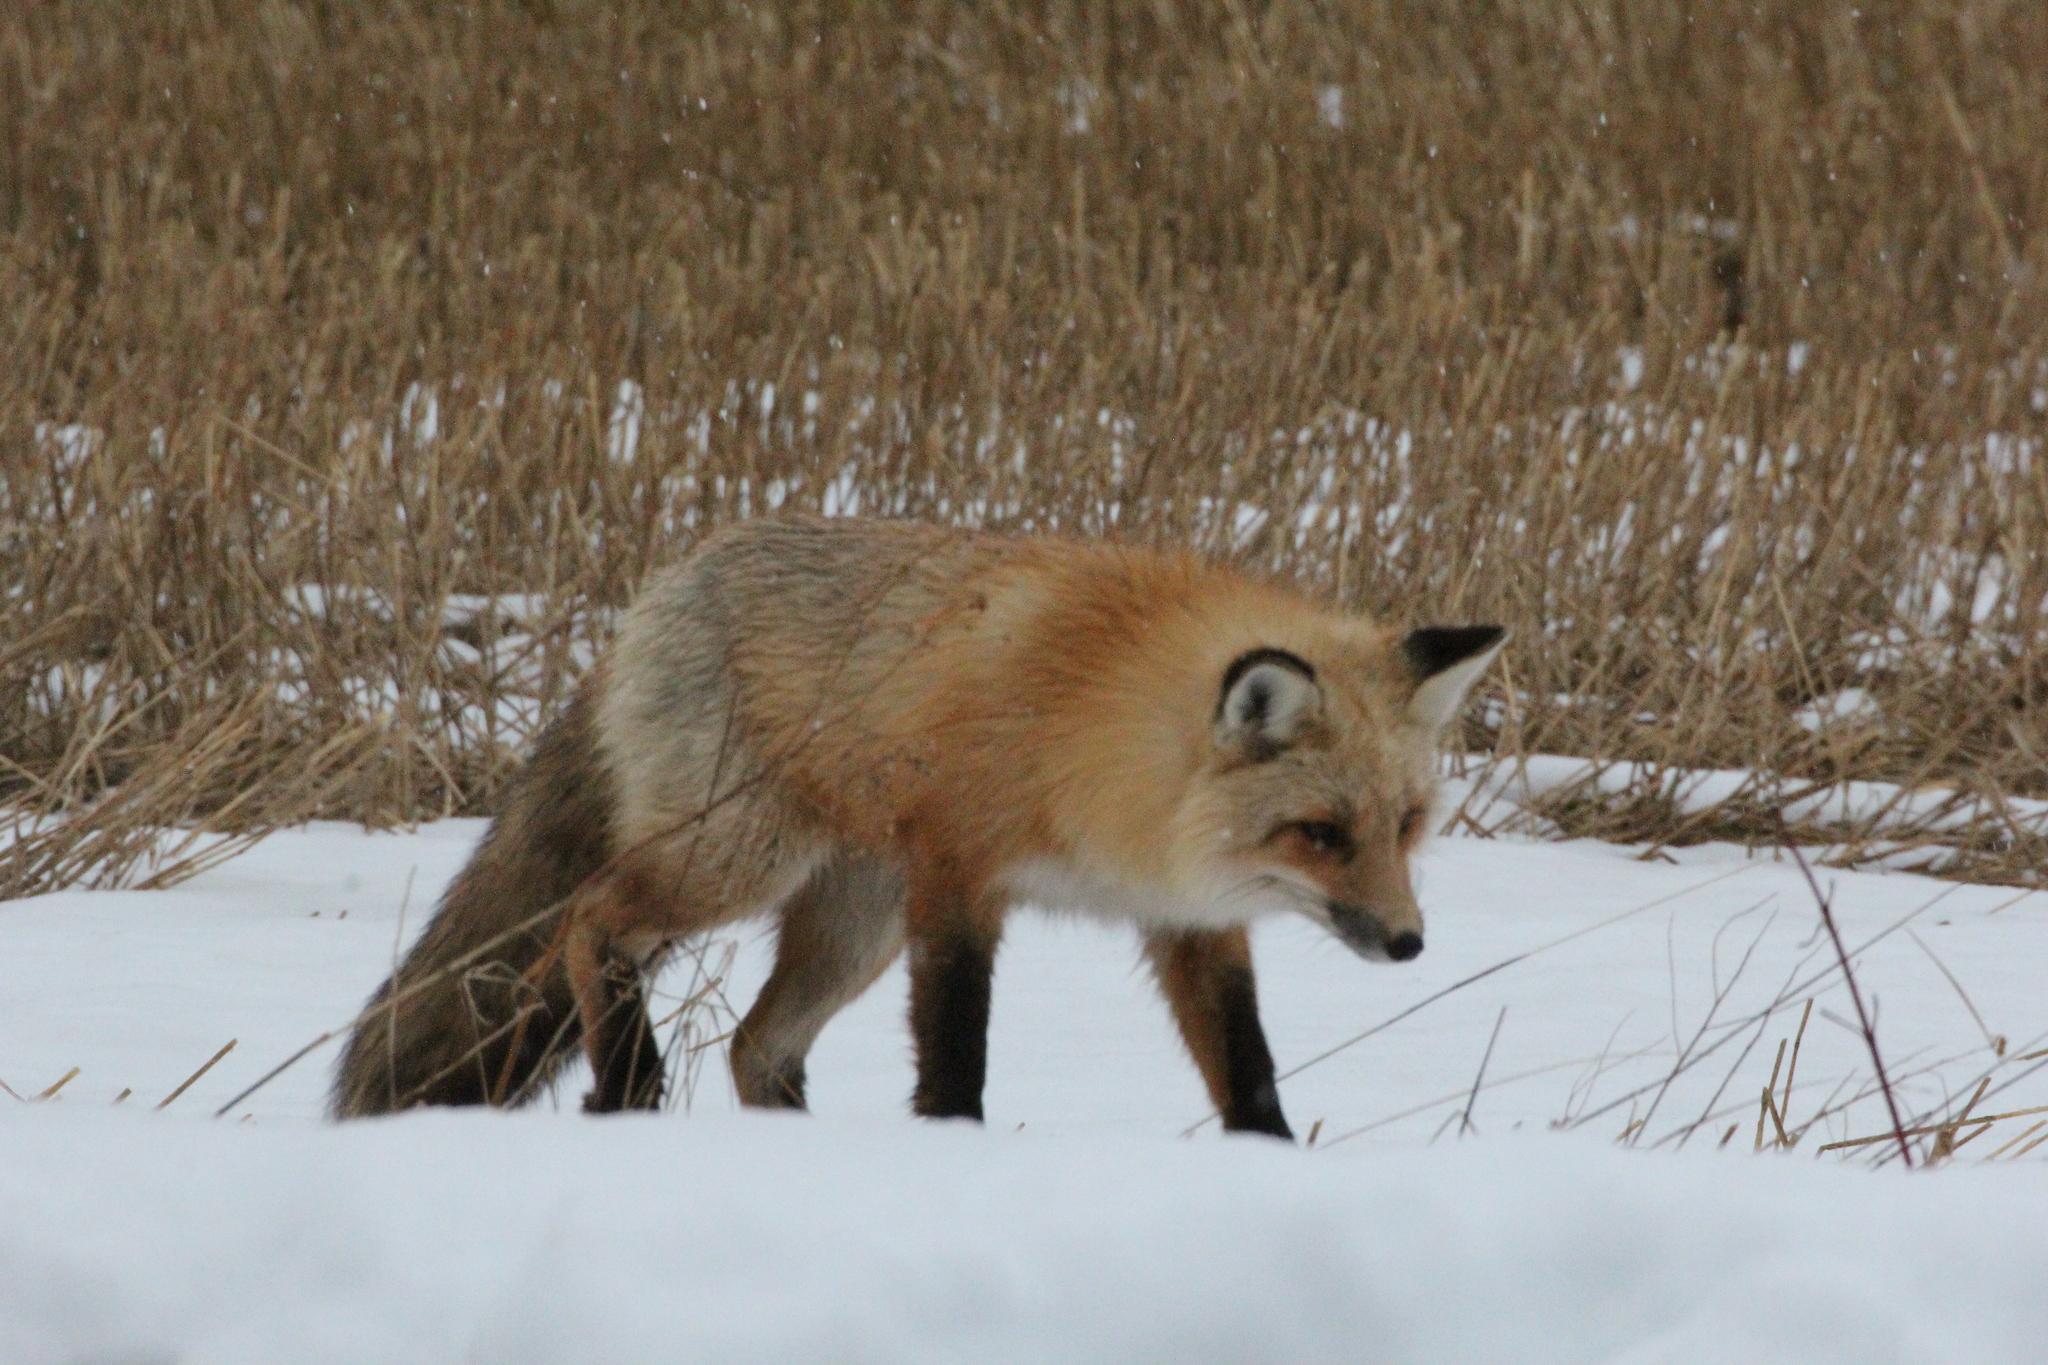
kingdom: Animalia
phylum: Chordata
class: Mammalia
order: Carnivora
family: Canidae
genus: Vulpes
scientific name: Vulpes vulpes
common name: Red fox
